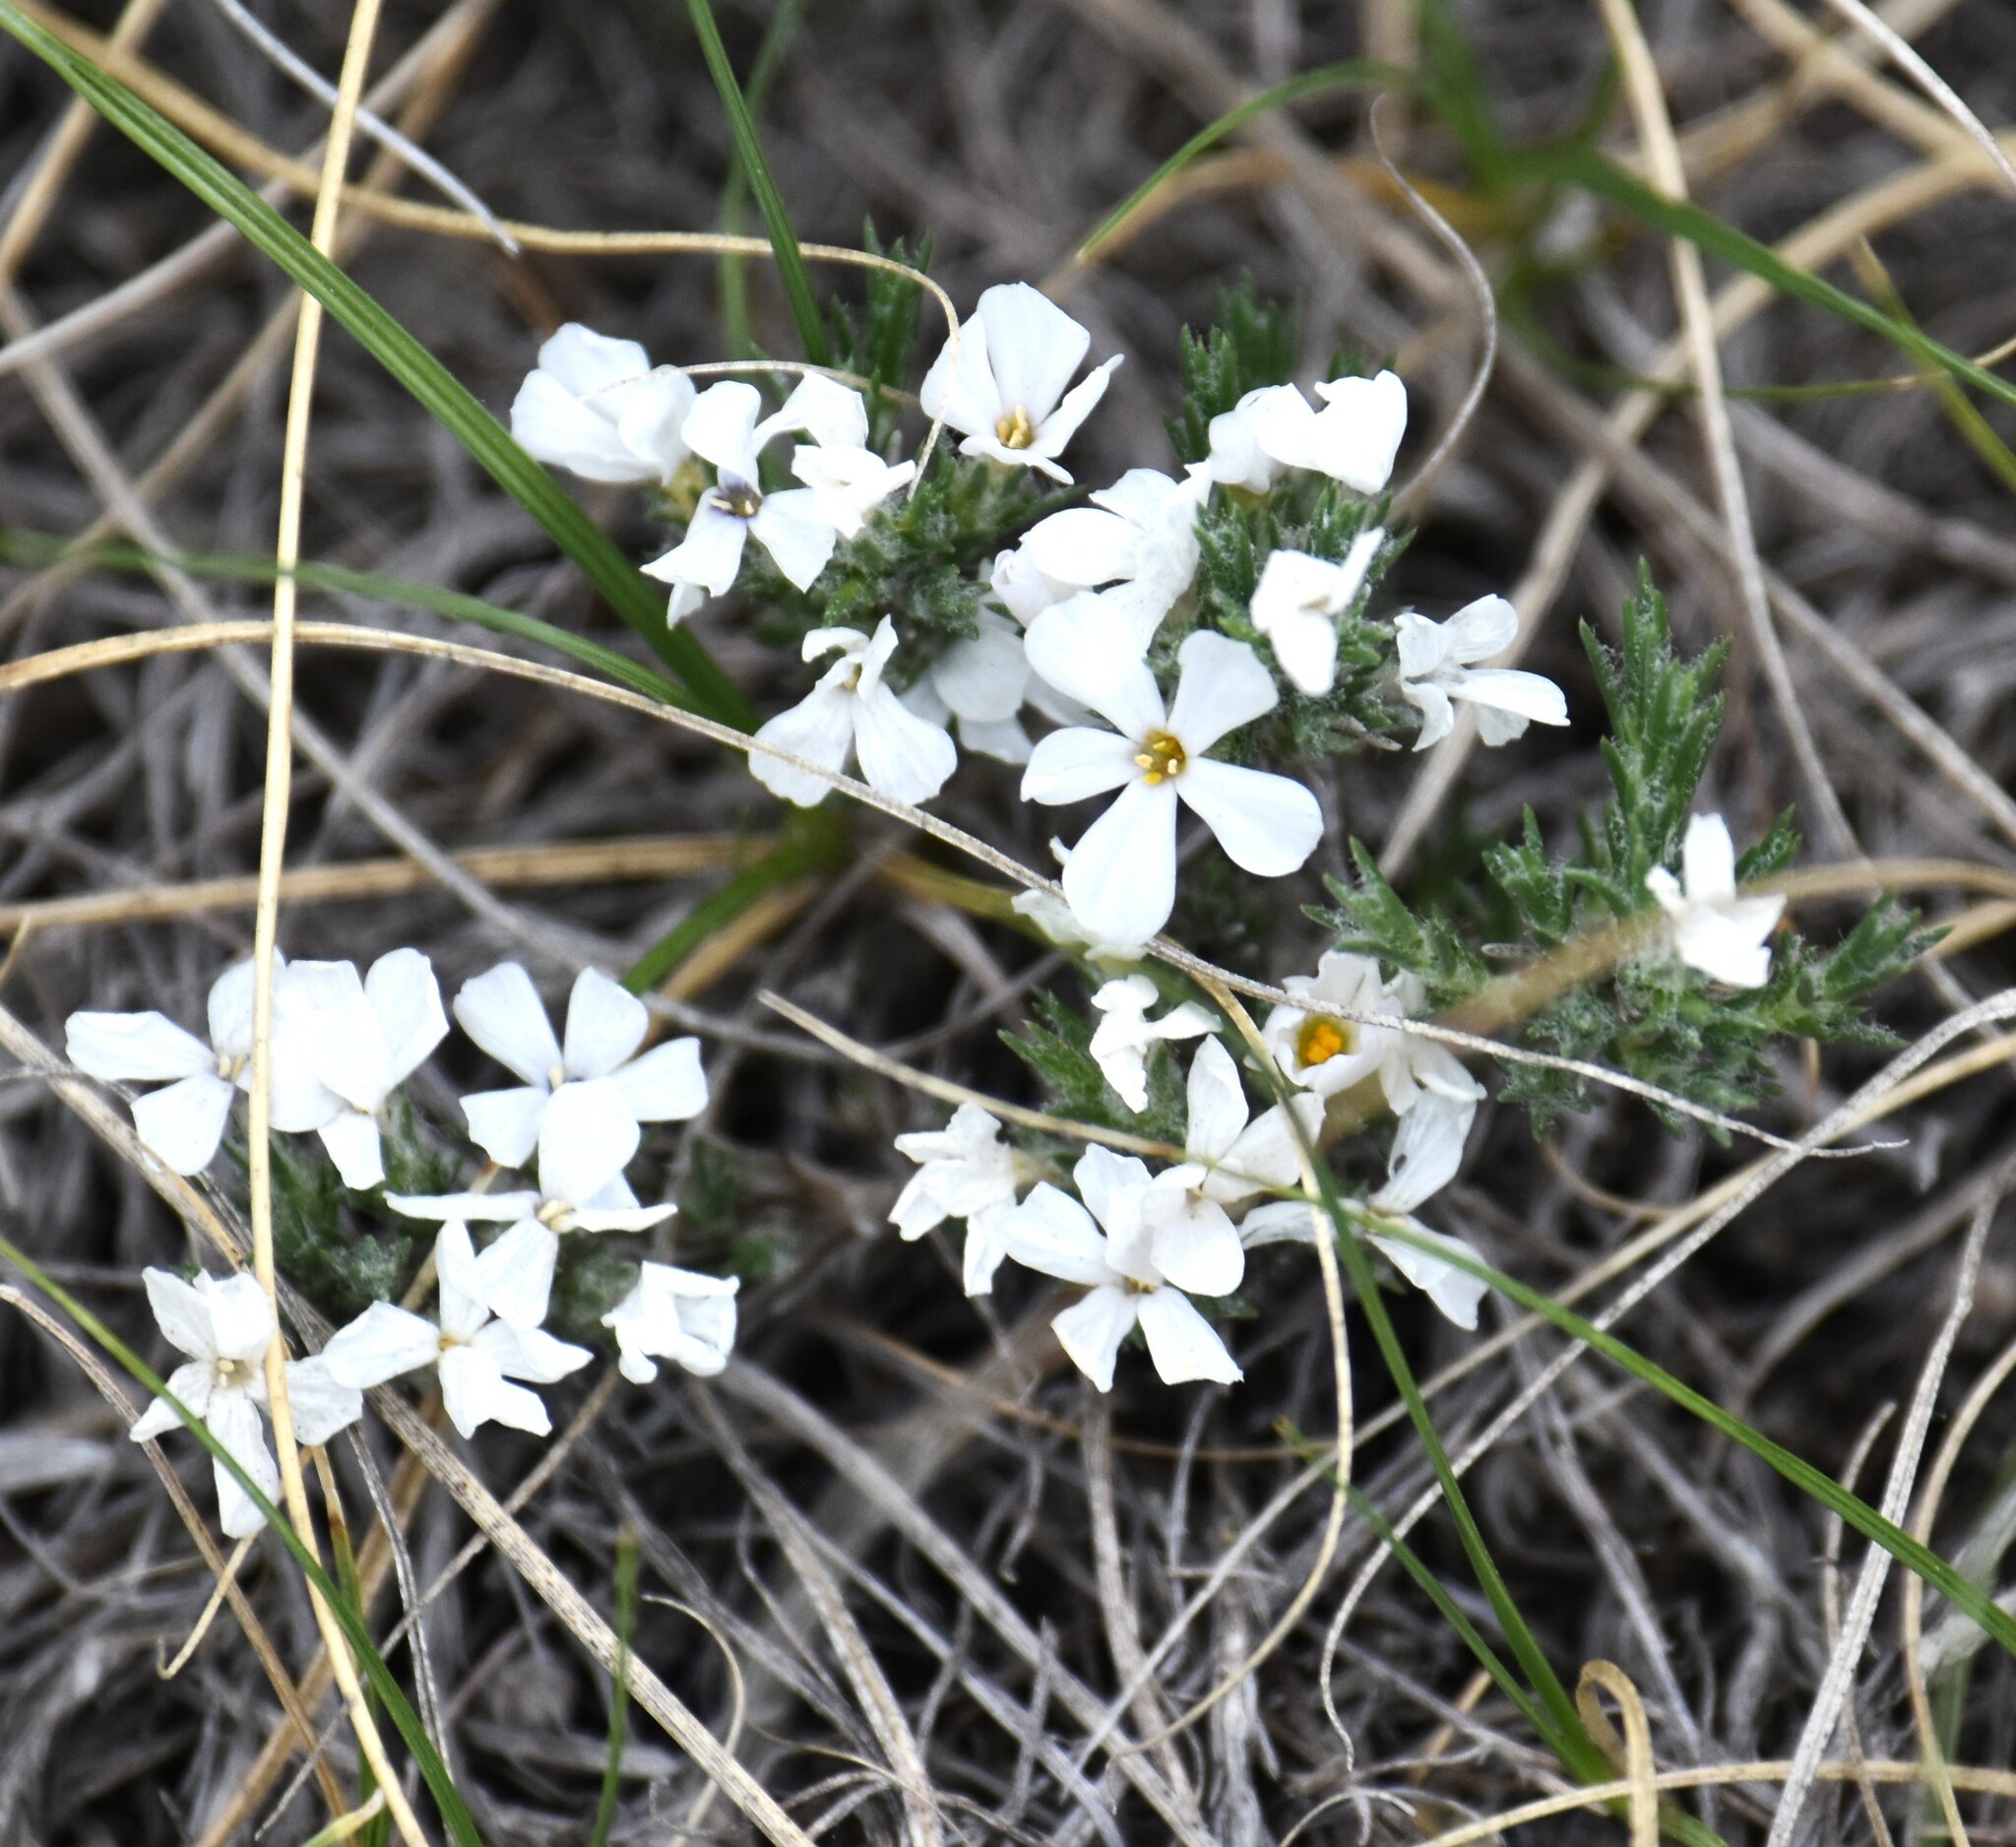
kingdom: Plantae
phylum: Tracheophyta
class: Magnoliopsida
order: Ericales
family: Polemoniaceae
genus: Phlox
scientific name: Phlox hoodii
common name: Moss phlox
